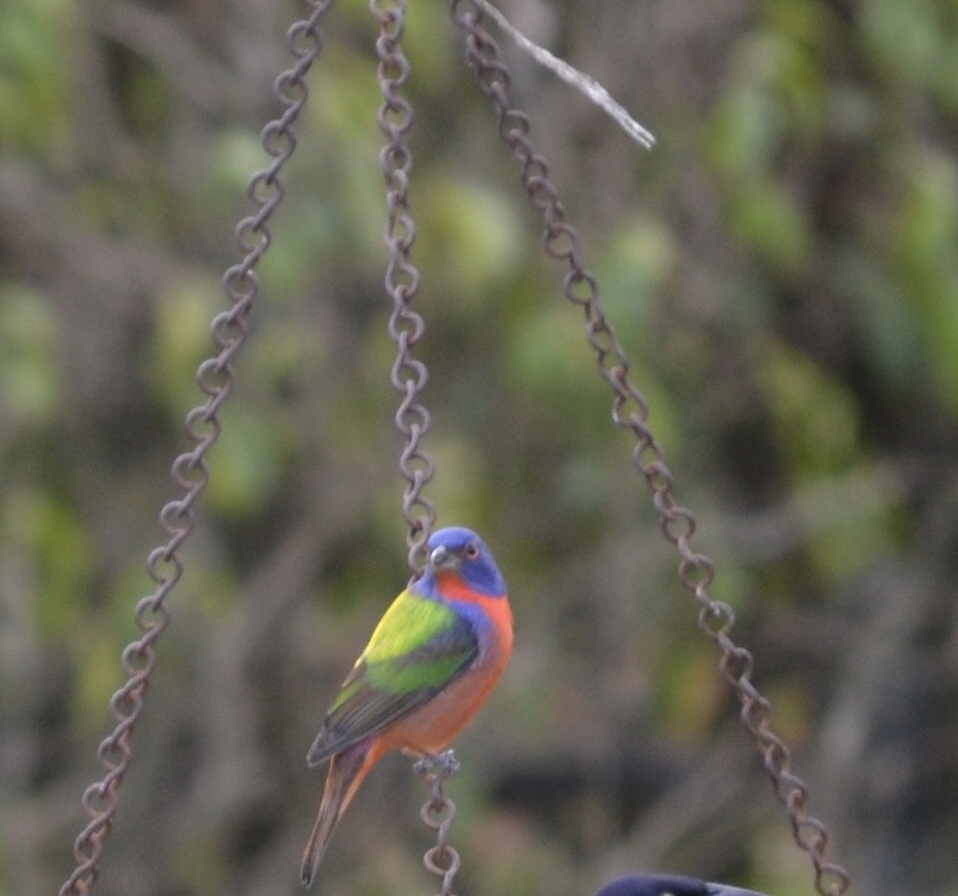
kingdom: Animalia
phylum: Chordata
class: Aves
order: Passeriformes
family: Cardinalidae
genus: Passerina
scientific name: Passerina ciris
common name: Painted bunting
